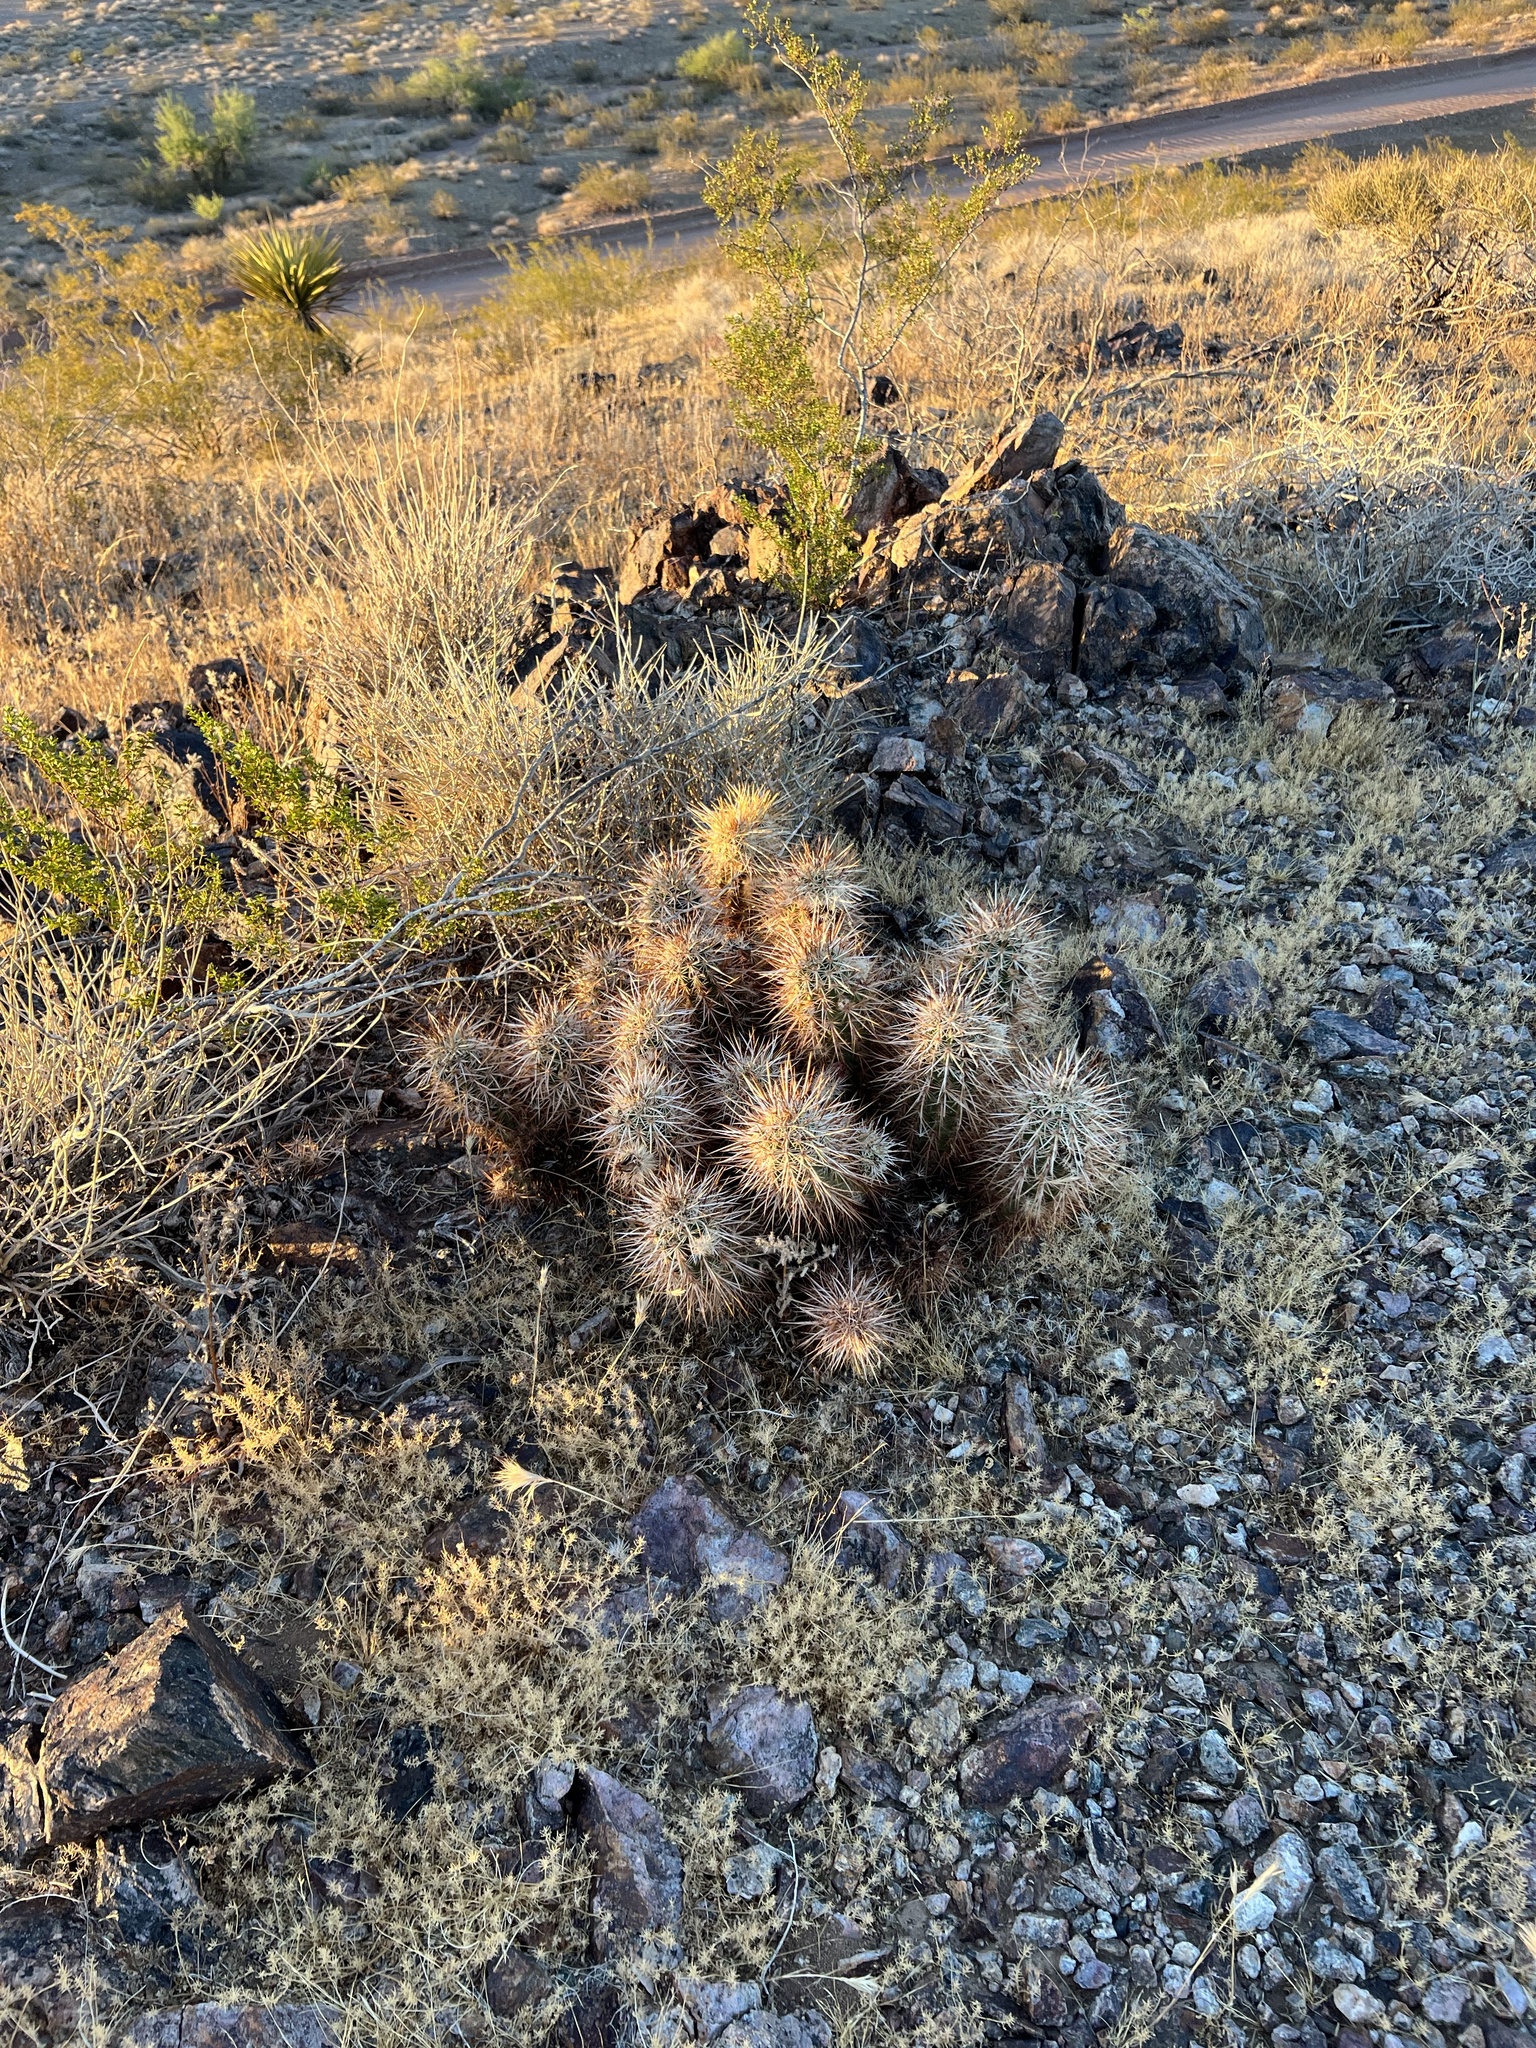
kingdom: Plantae
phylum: Tracheophyta
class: Magnoliopsida
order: Caryophyllales
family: Cactaceae
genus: Echinocereus
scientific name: Echinocereus engelmannii
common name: Engelmann's hedgehog cactus
